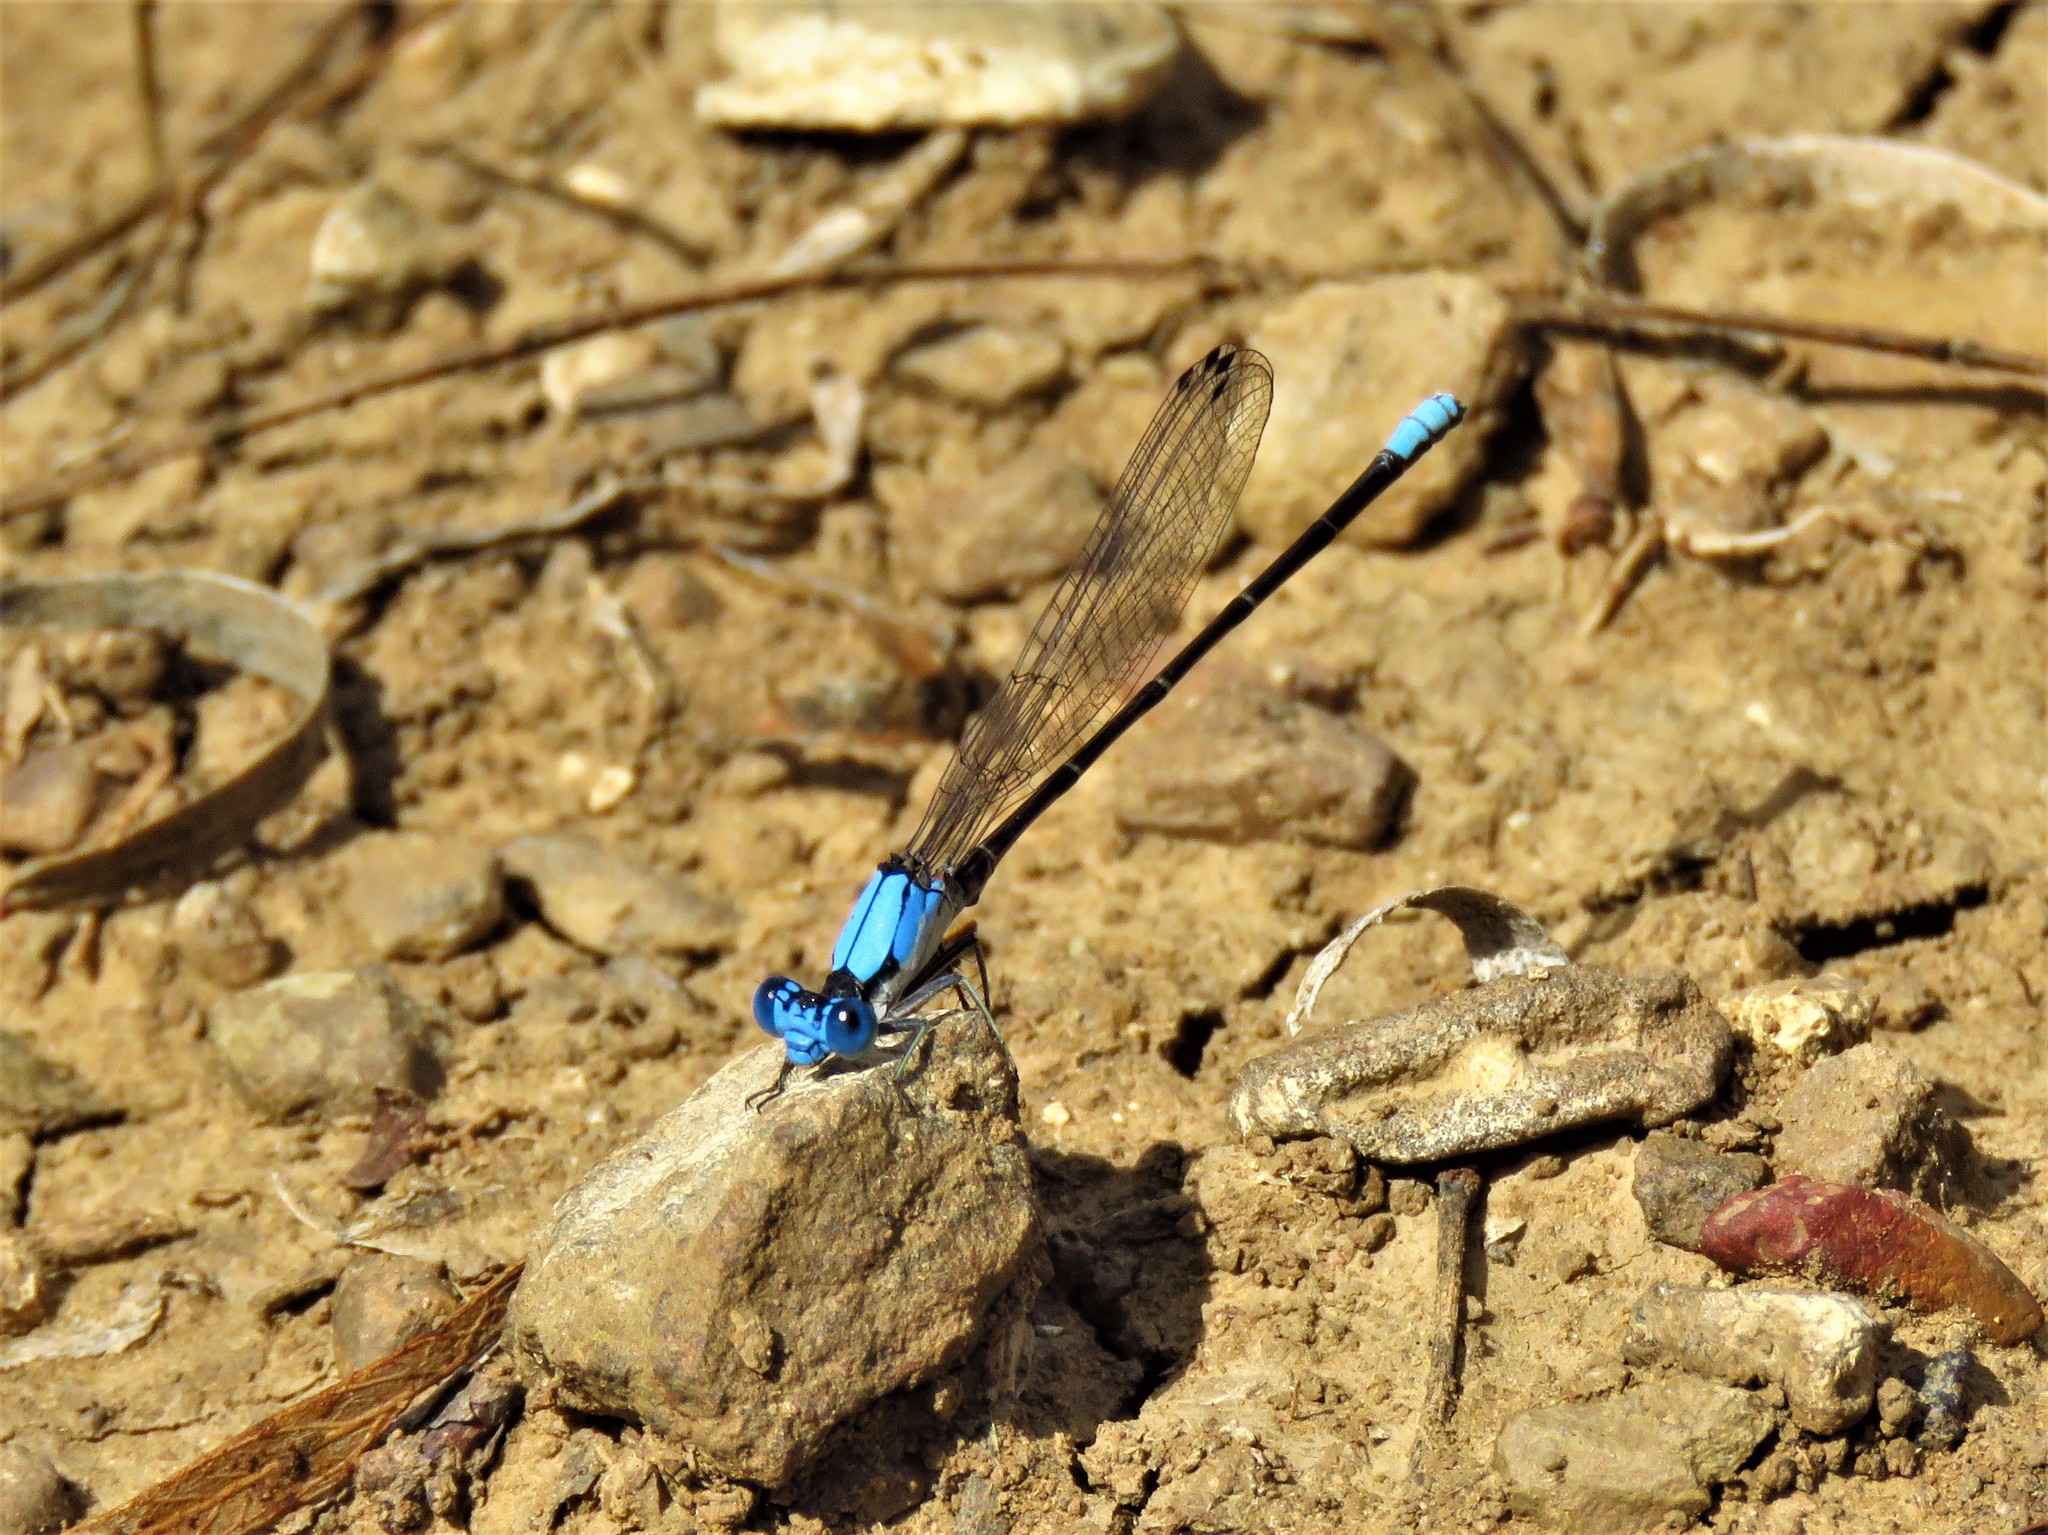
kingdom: Animalia
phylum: Arthropoda
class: Insecta
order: Odonata
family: Coenagrionidae
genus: Argia
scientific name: Argia apicalis
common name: Blue-fronted dancer
